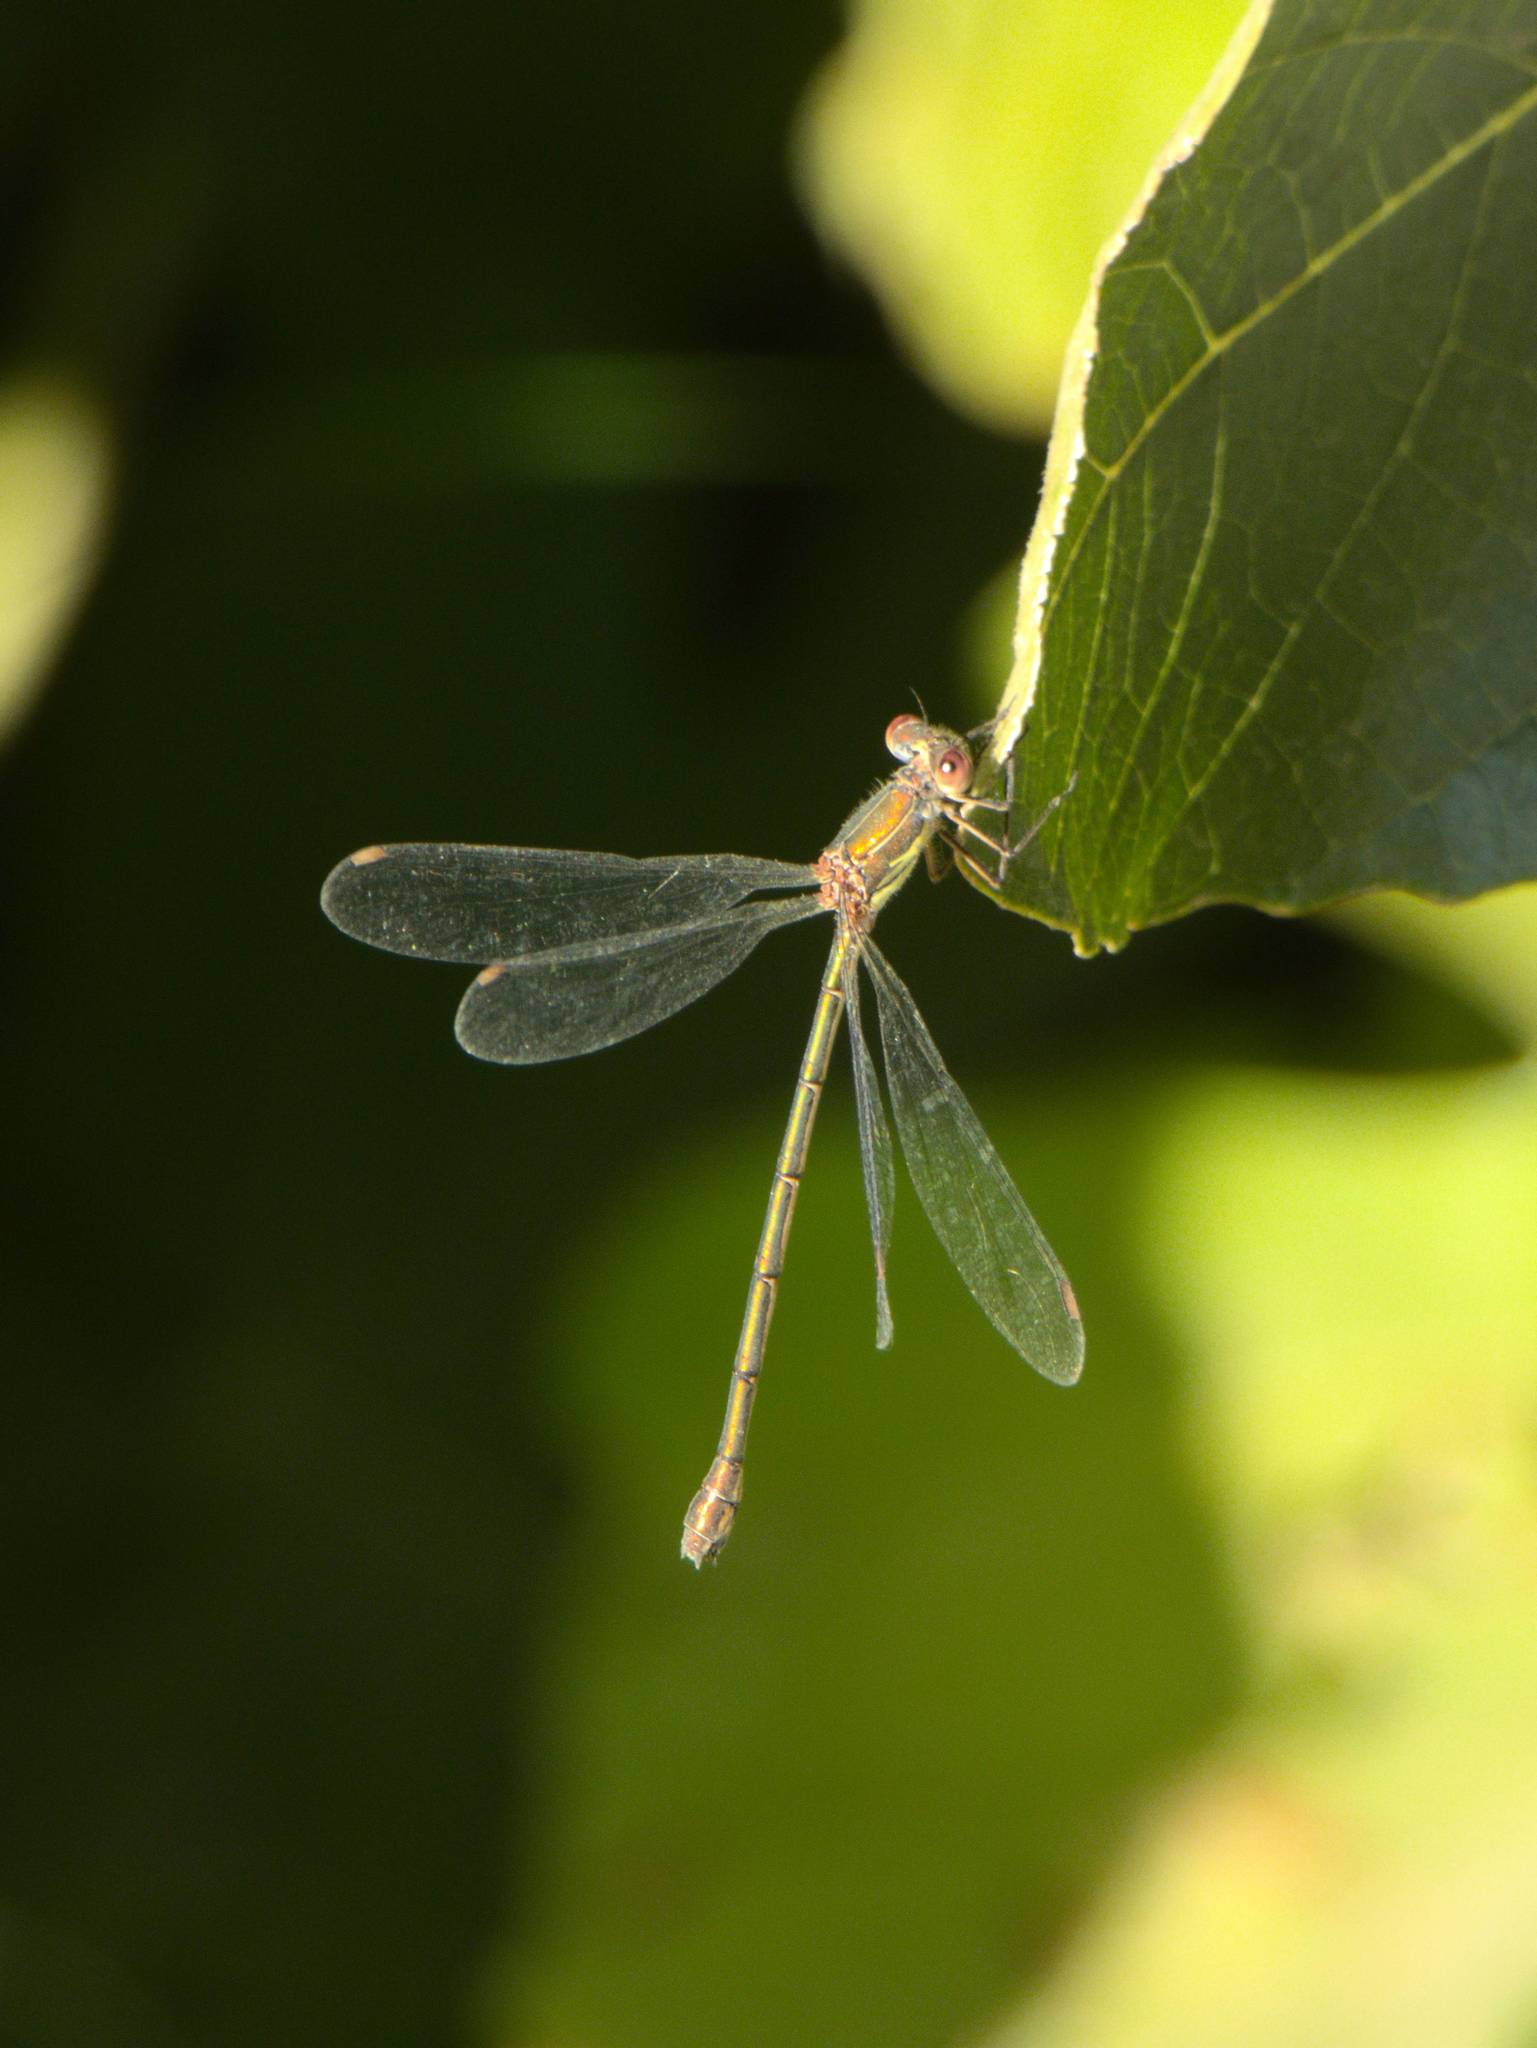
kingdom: Animalia
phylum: Arthropoda
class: Insecta
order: Odonata
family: Lestidae
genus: Chalcolestes
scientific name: Chalcolestes viridis
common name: Green emerald damselfly
